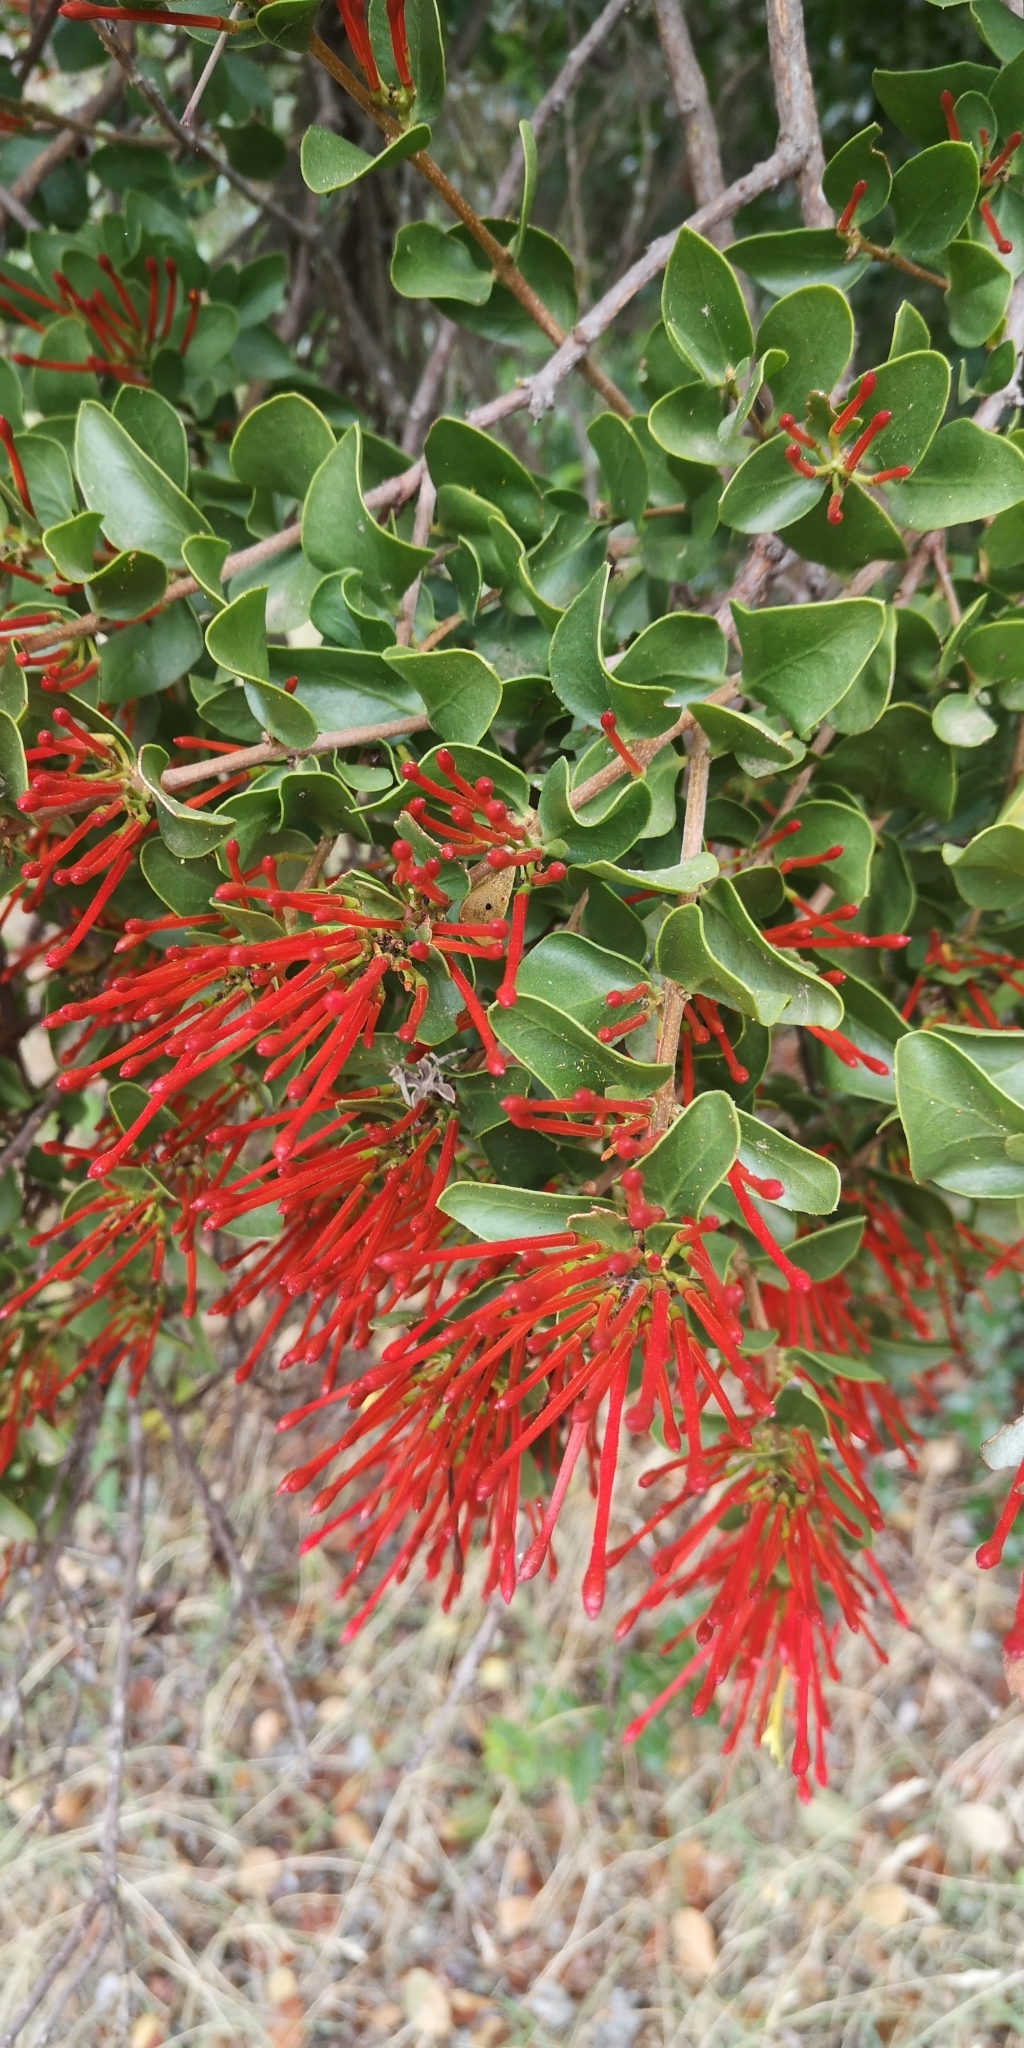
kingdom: Plantae
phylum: Tracheophyta
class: Magnoliopsida
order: Santalales
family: Loranthaceae
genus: Tristerix
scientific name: Tristerix corymbosus
